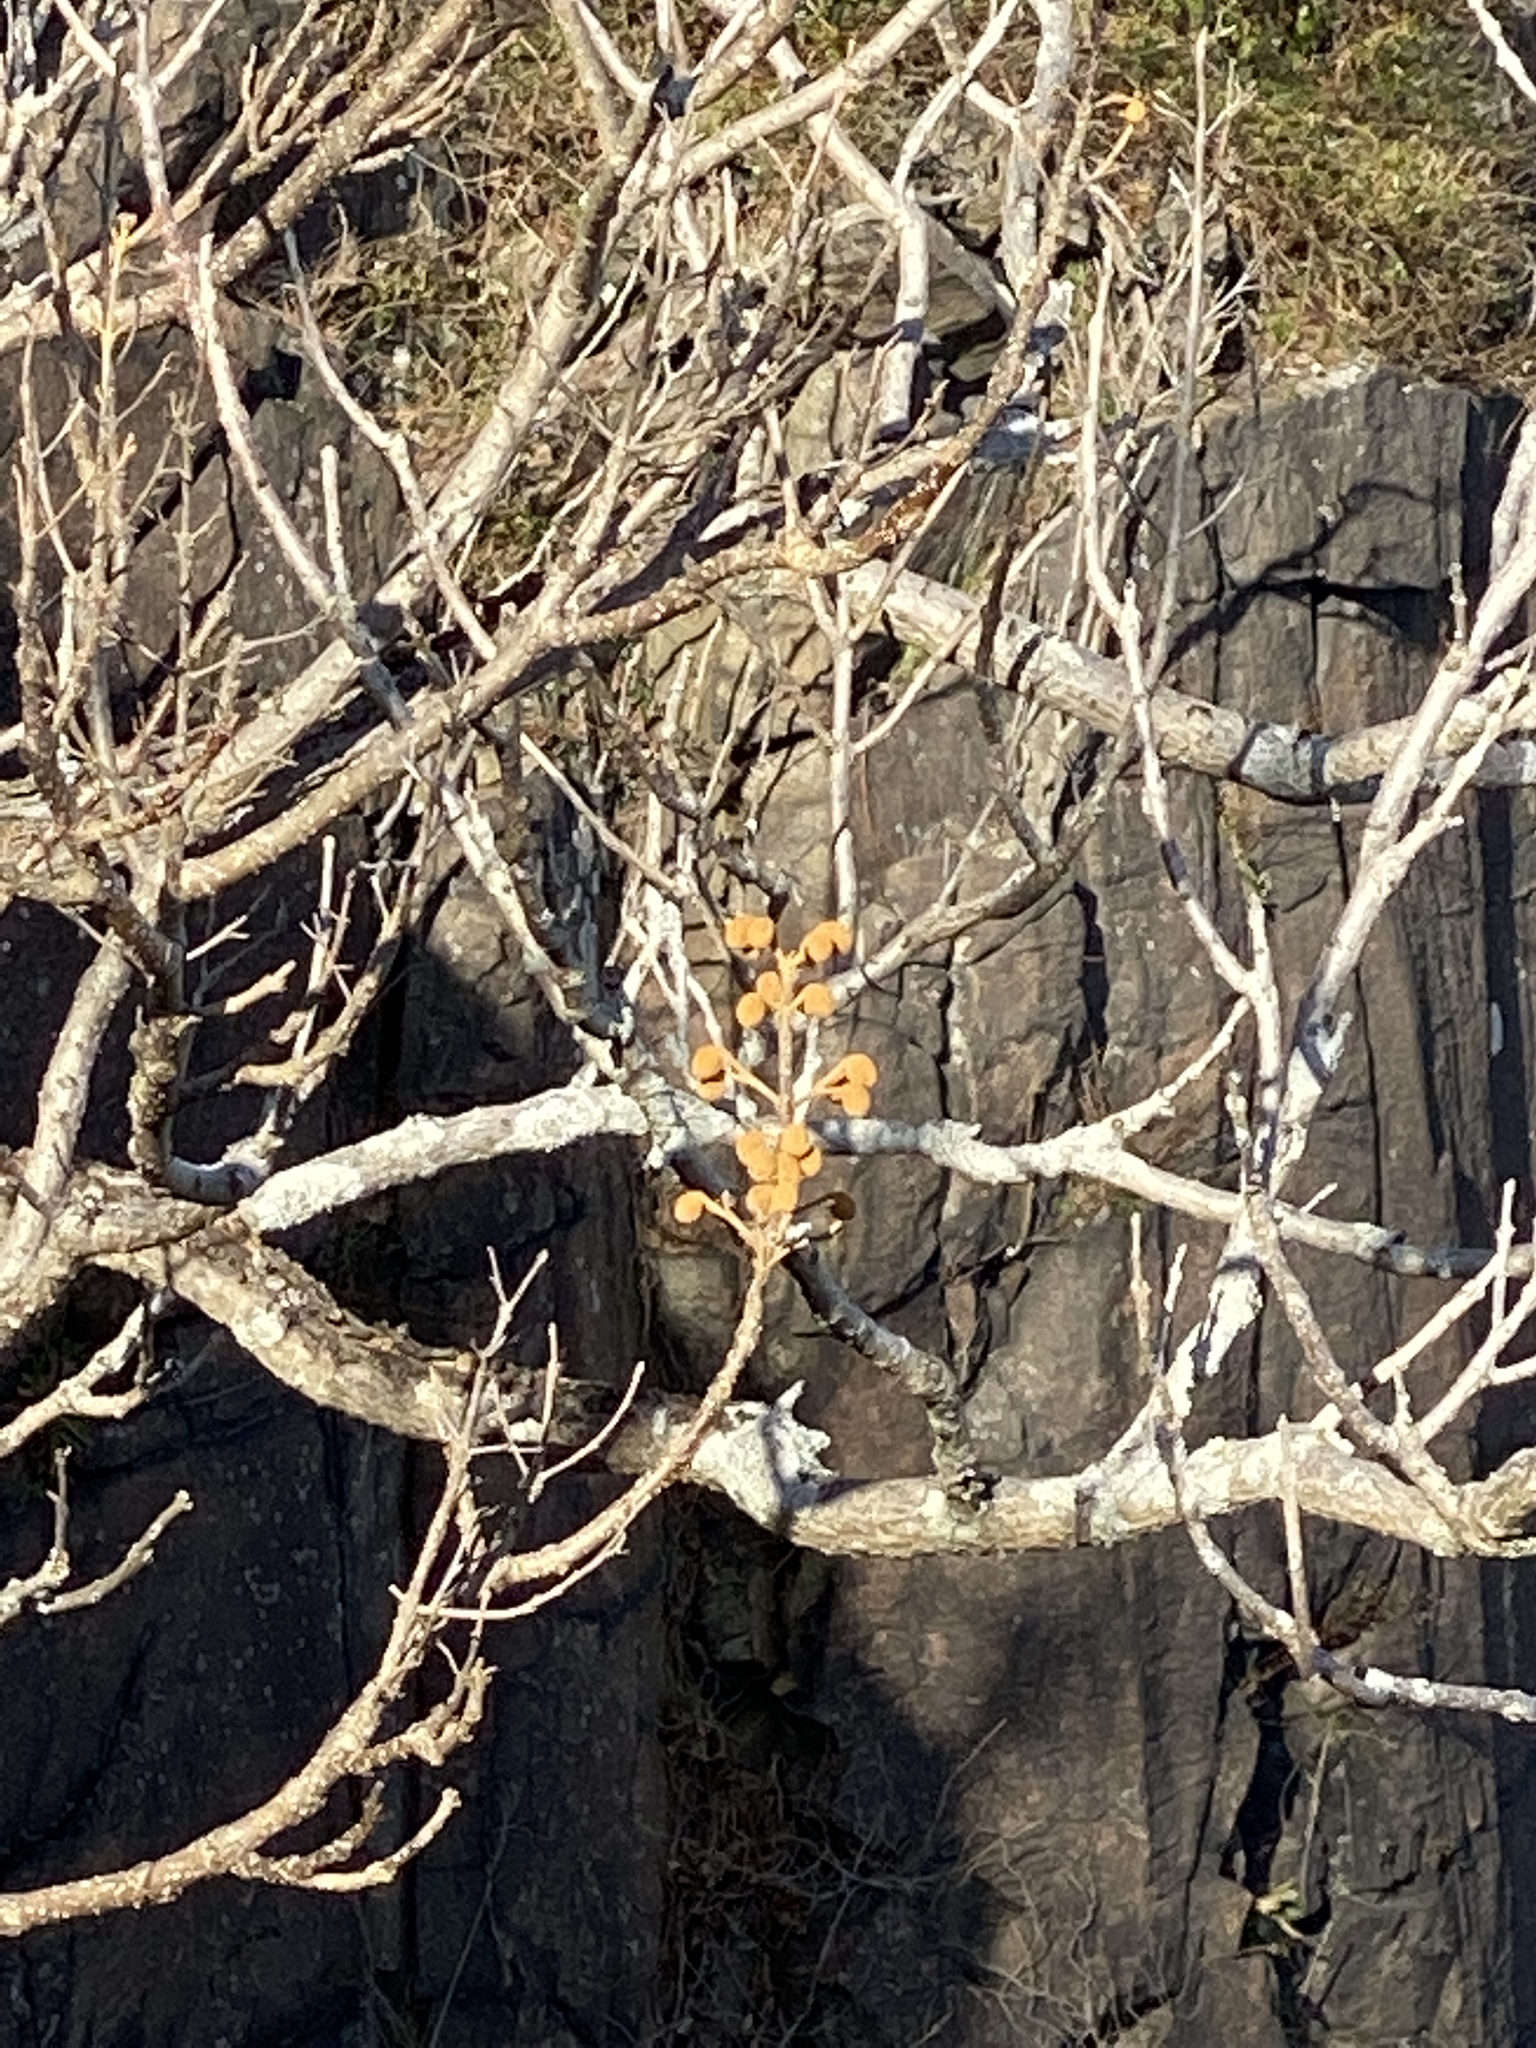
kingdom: Plantae
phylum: Tracheophyta
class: Magnoliopsida
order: Lamiales
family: Paulowniaceae
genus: Paulownia
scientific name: Paulownia tomentosa
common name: Foxglove-tree
